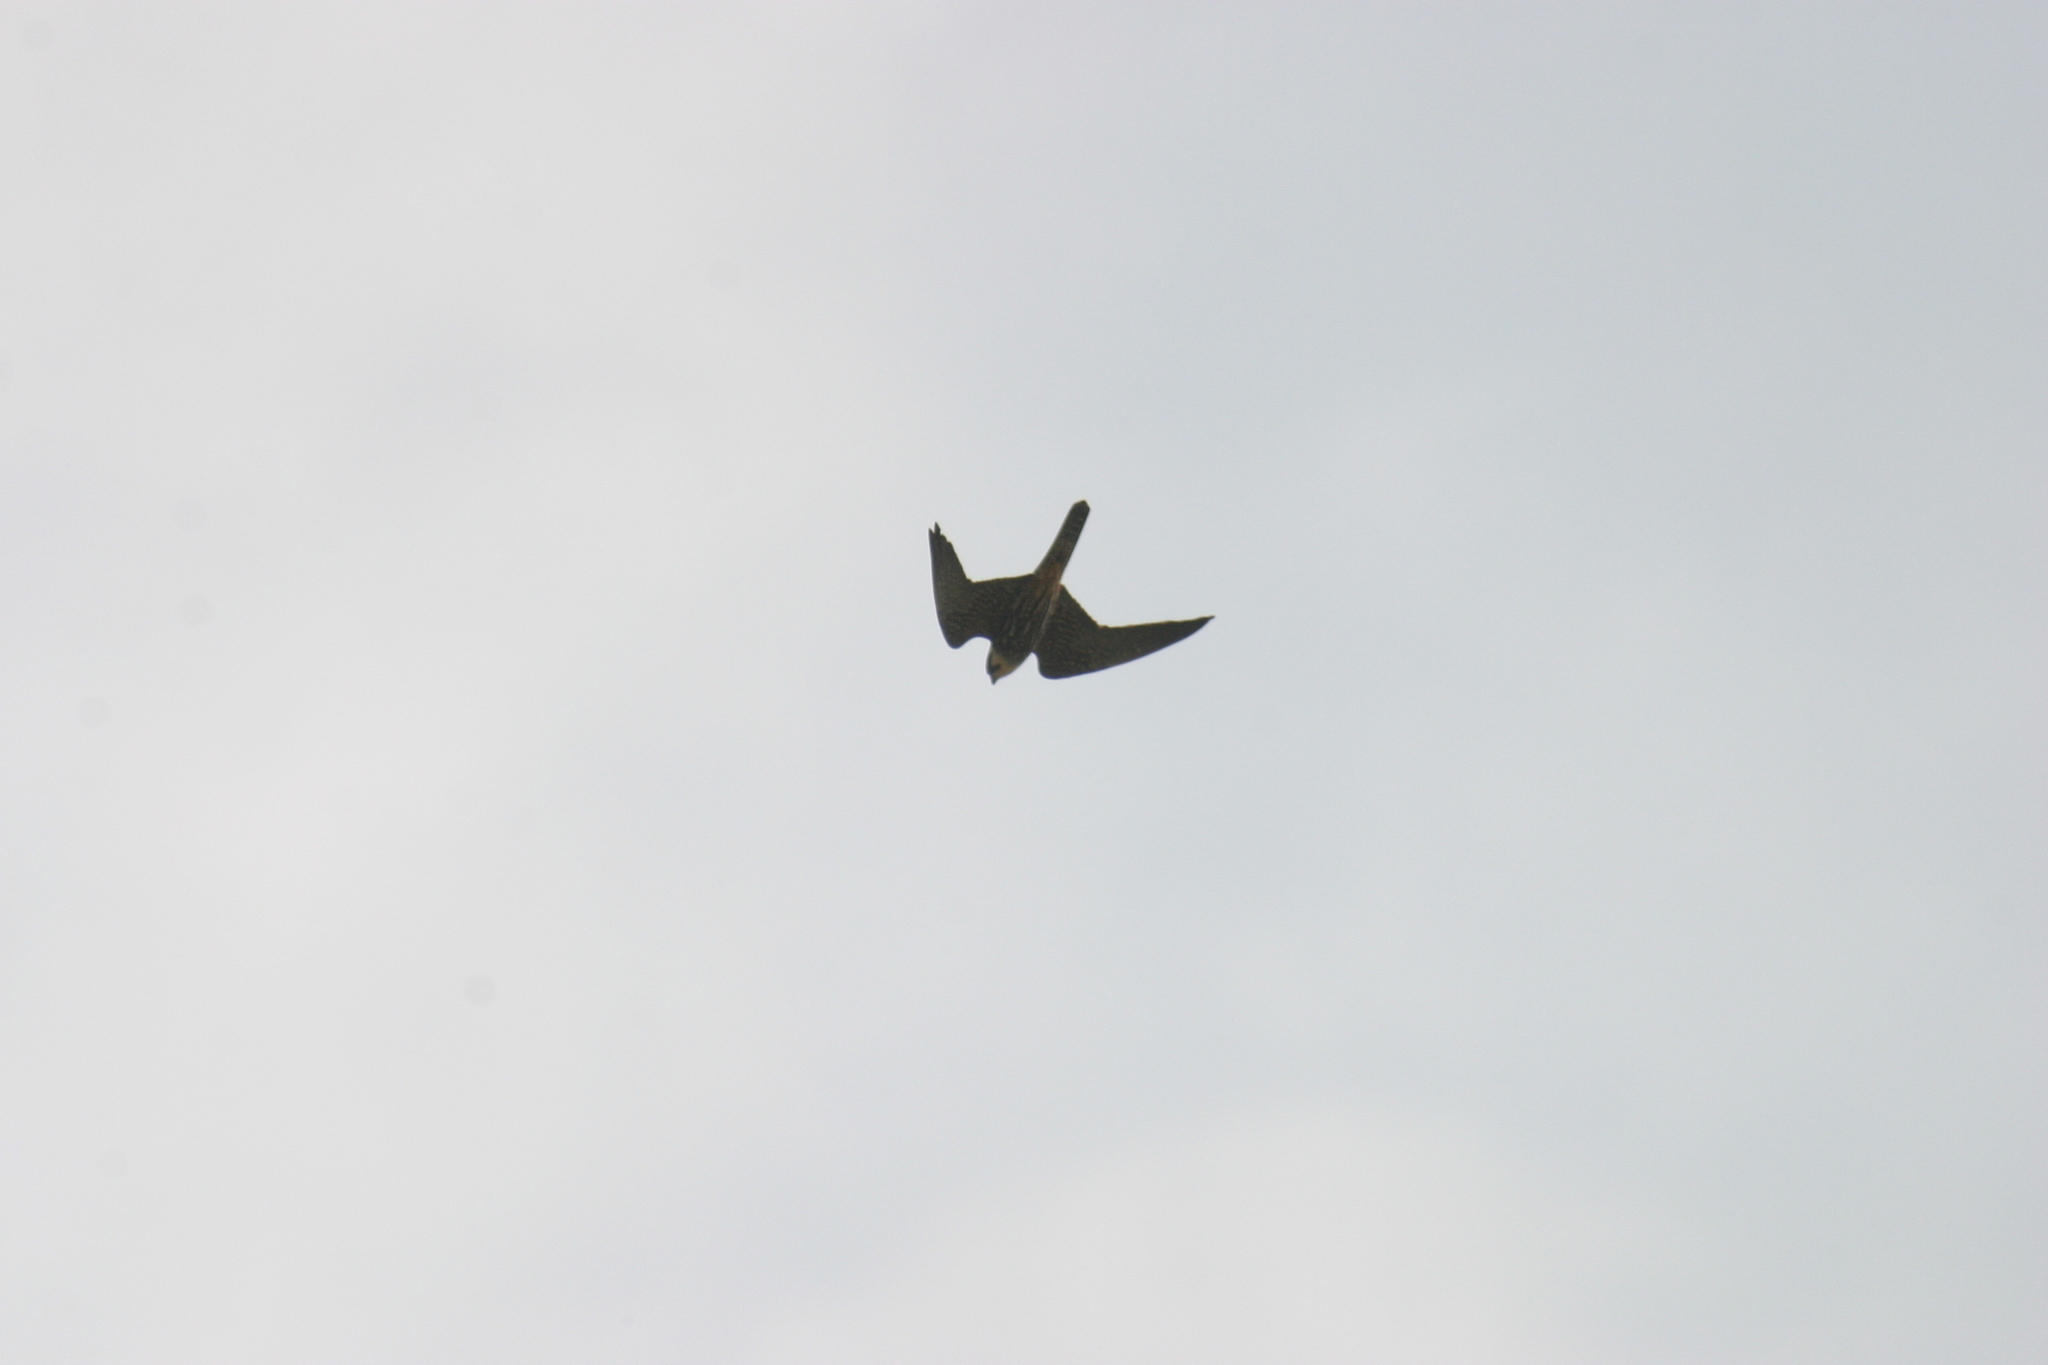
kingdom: Animalia
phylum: Chordata
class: Aves
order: Falconiformes
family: Falconidae
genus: Falco
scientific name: Falco subbuteo
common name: Eurasian hobby
